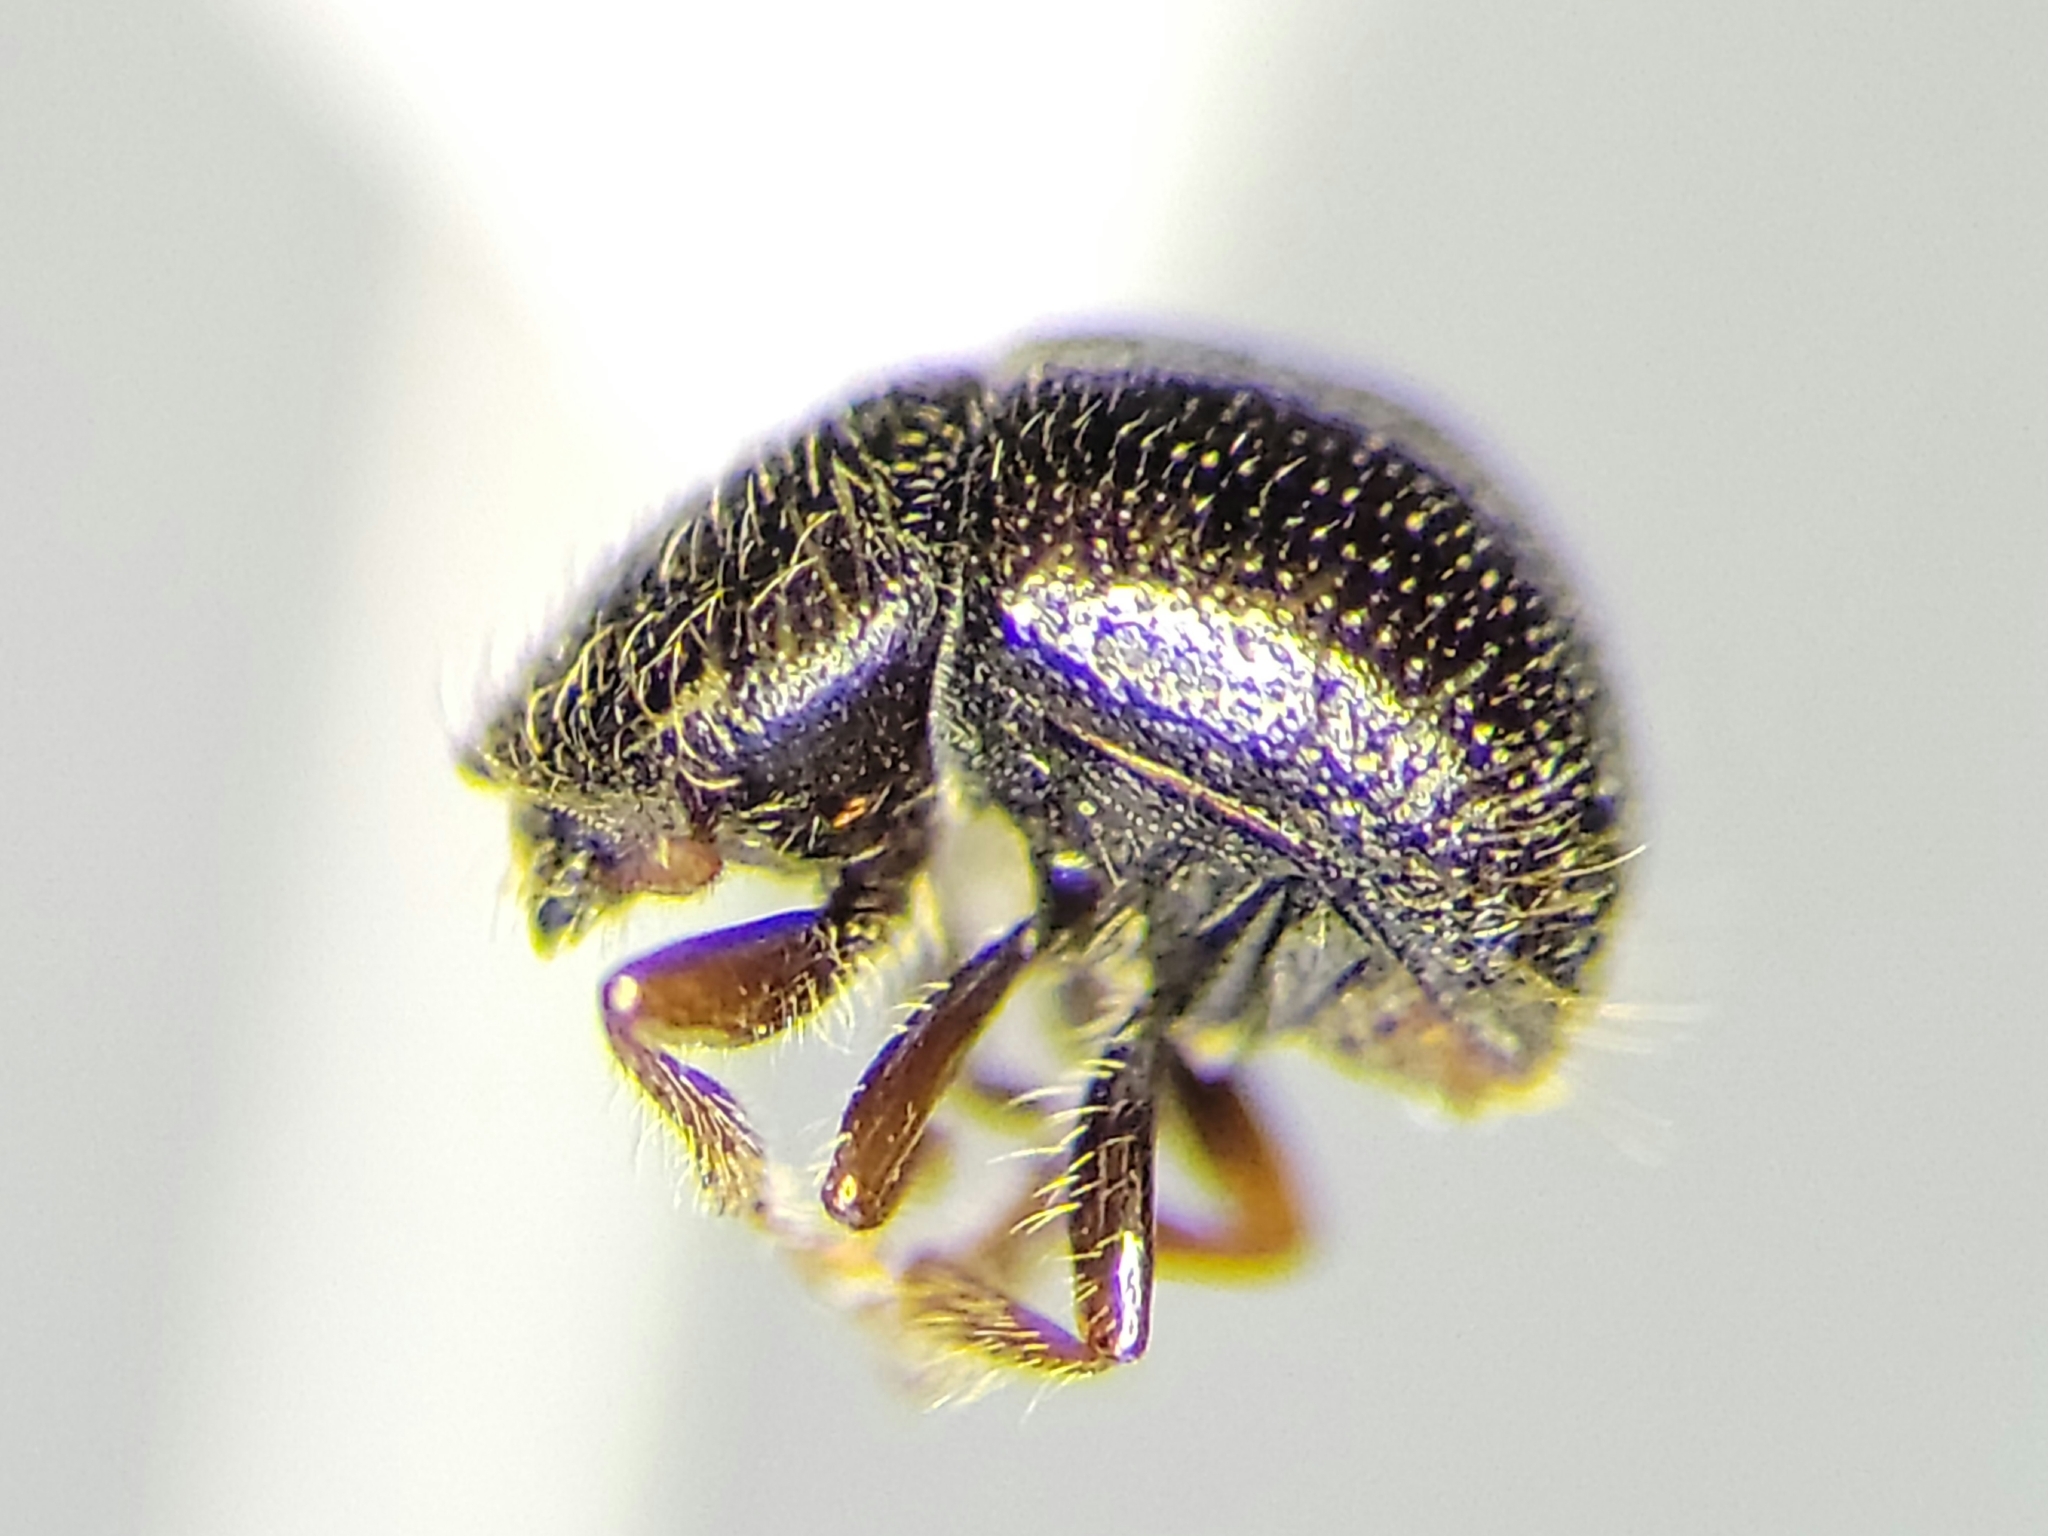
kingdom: Animalia
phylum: Arthropoda
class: Insecta
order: Coleoptera
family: Curculionidae
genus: Anisandrus
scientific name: Anisandrus dispar
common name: European shothole borer
